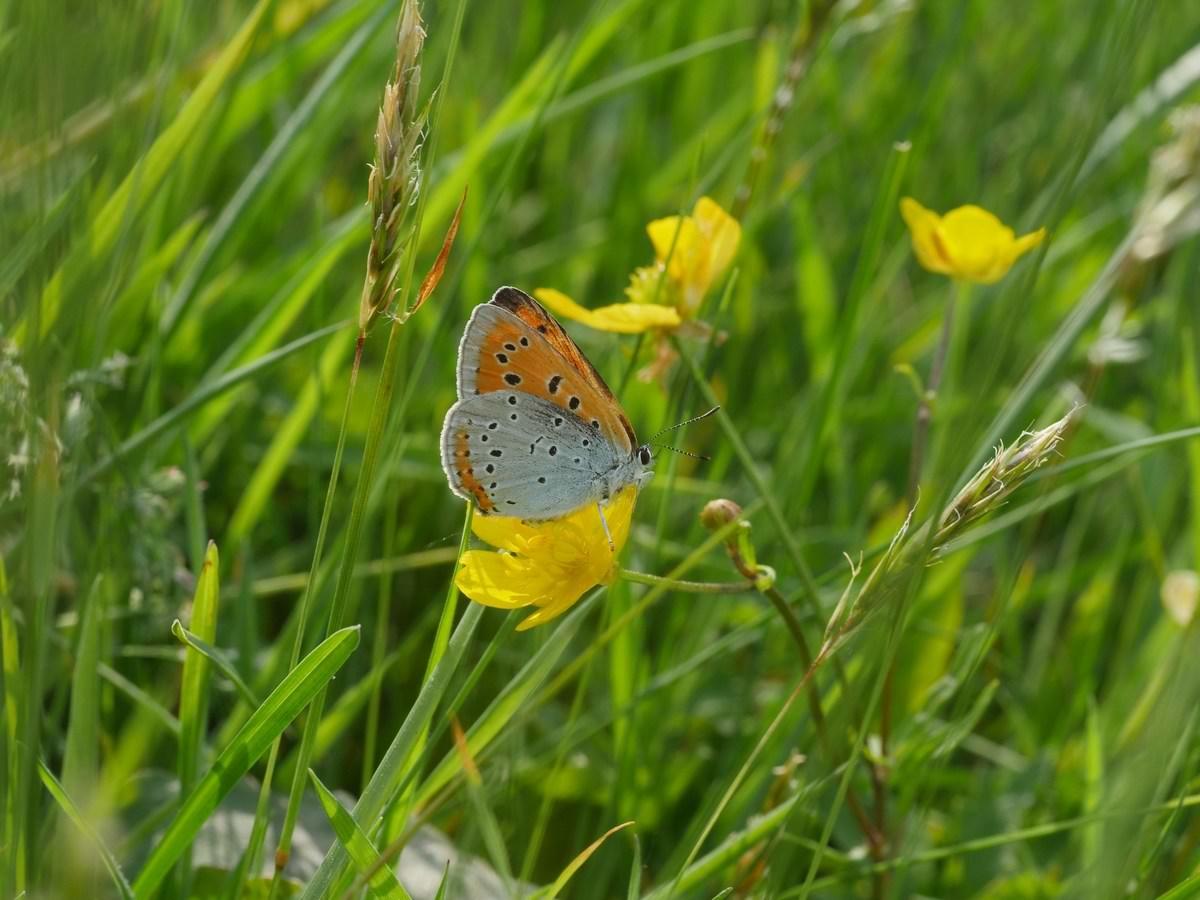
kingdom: Animalia
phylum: Arthropoda
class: Insecta
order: Lepidoptera
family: Lycaenidae
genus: Lycaena
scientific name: Lycaena dispar
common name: Large copper
